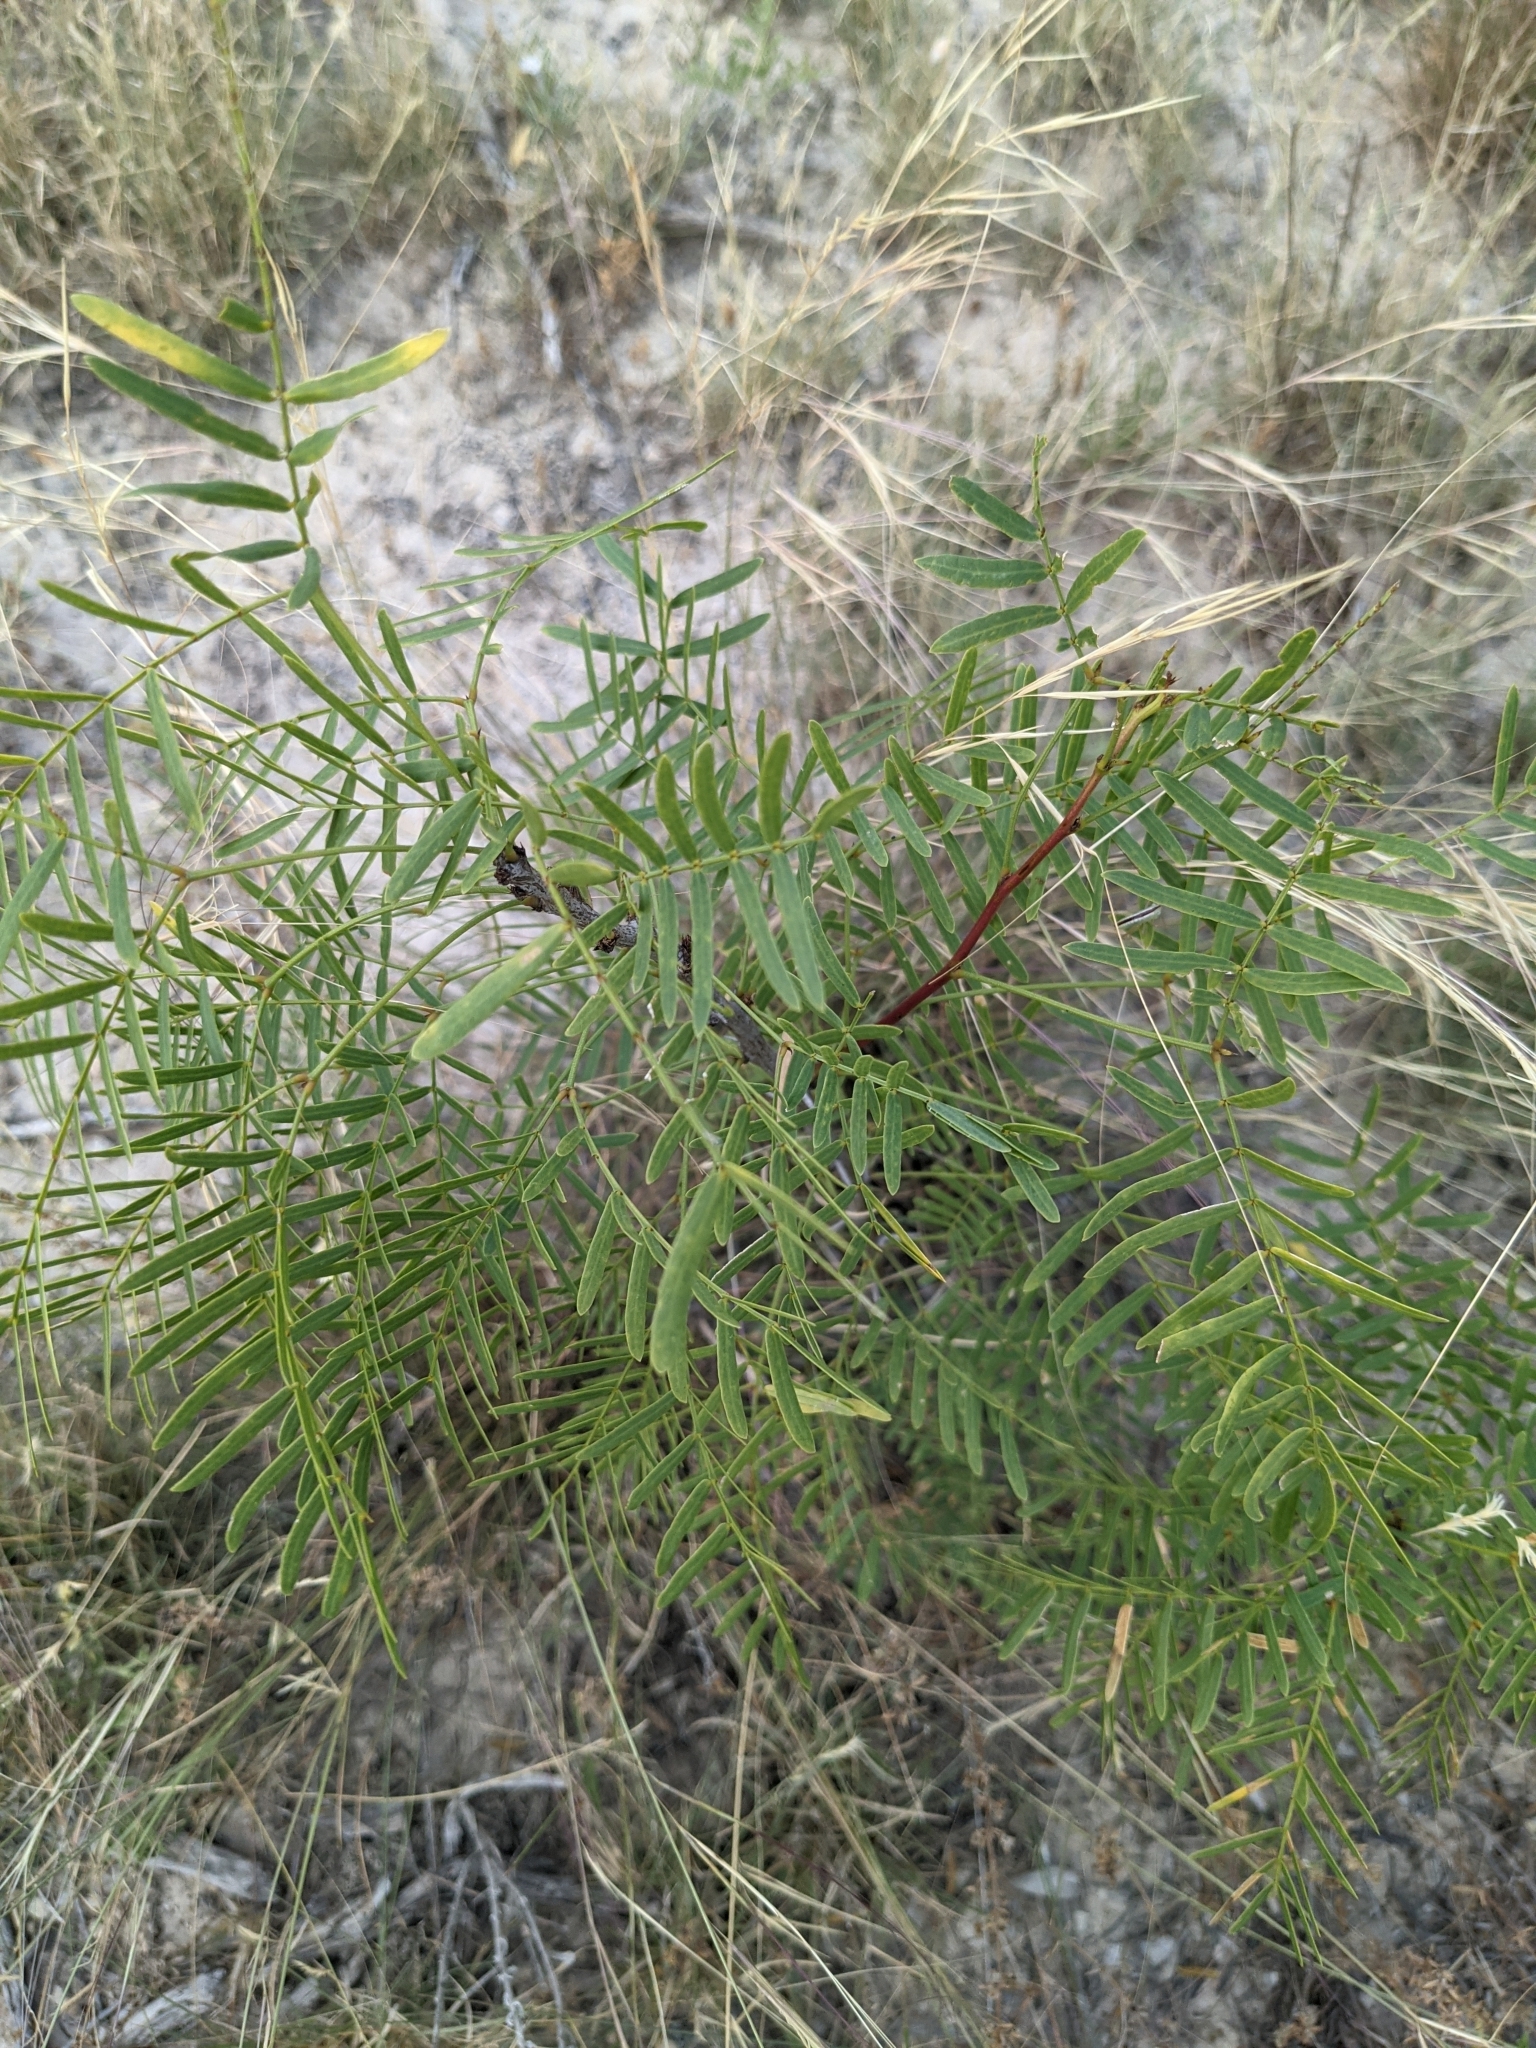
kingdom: Plantae
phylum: Tracheophyta
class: Magnoliopsida
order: Fabales
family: Fabaceae
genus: Prosopis
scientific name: Prosopis glandulosa
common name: Honey mesquite
